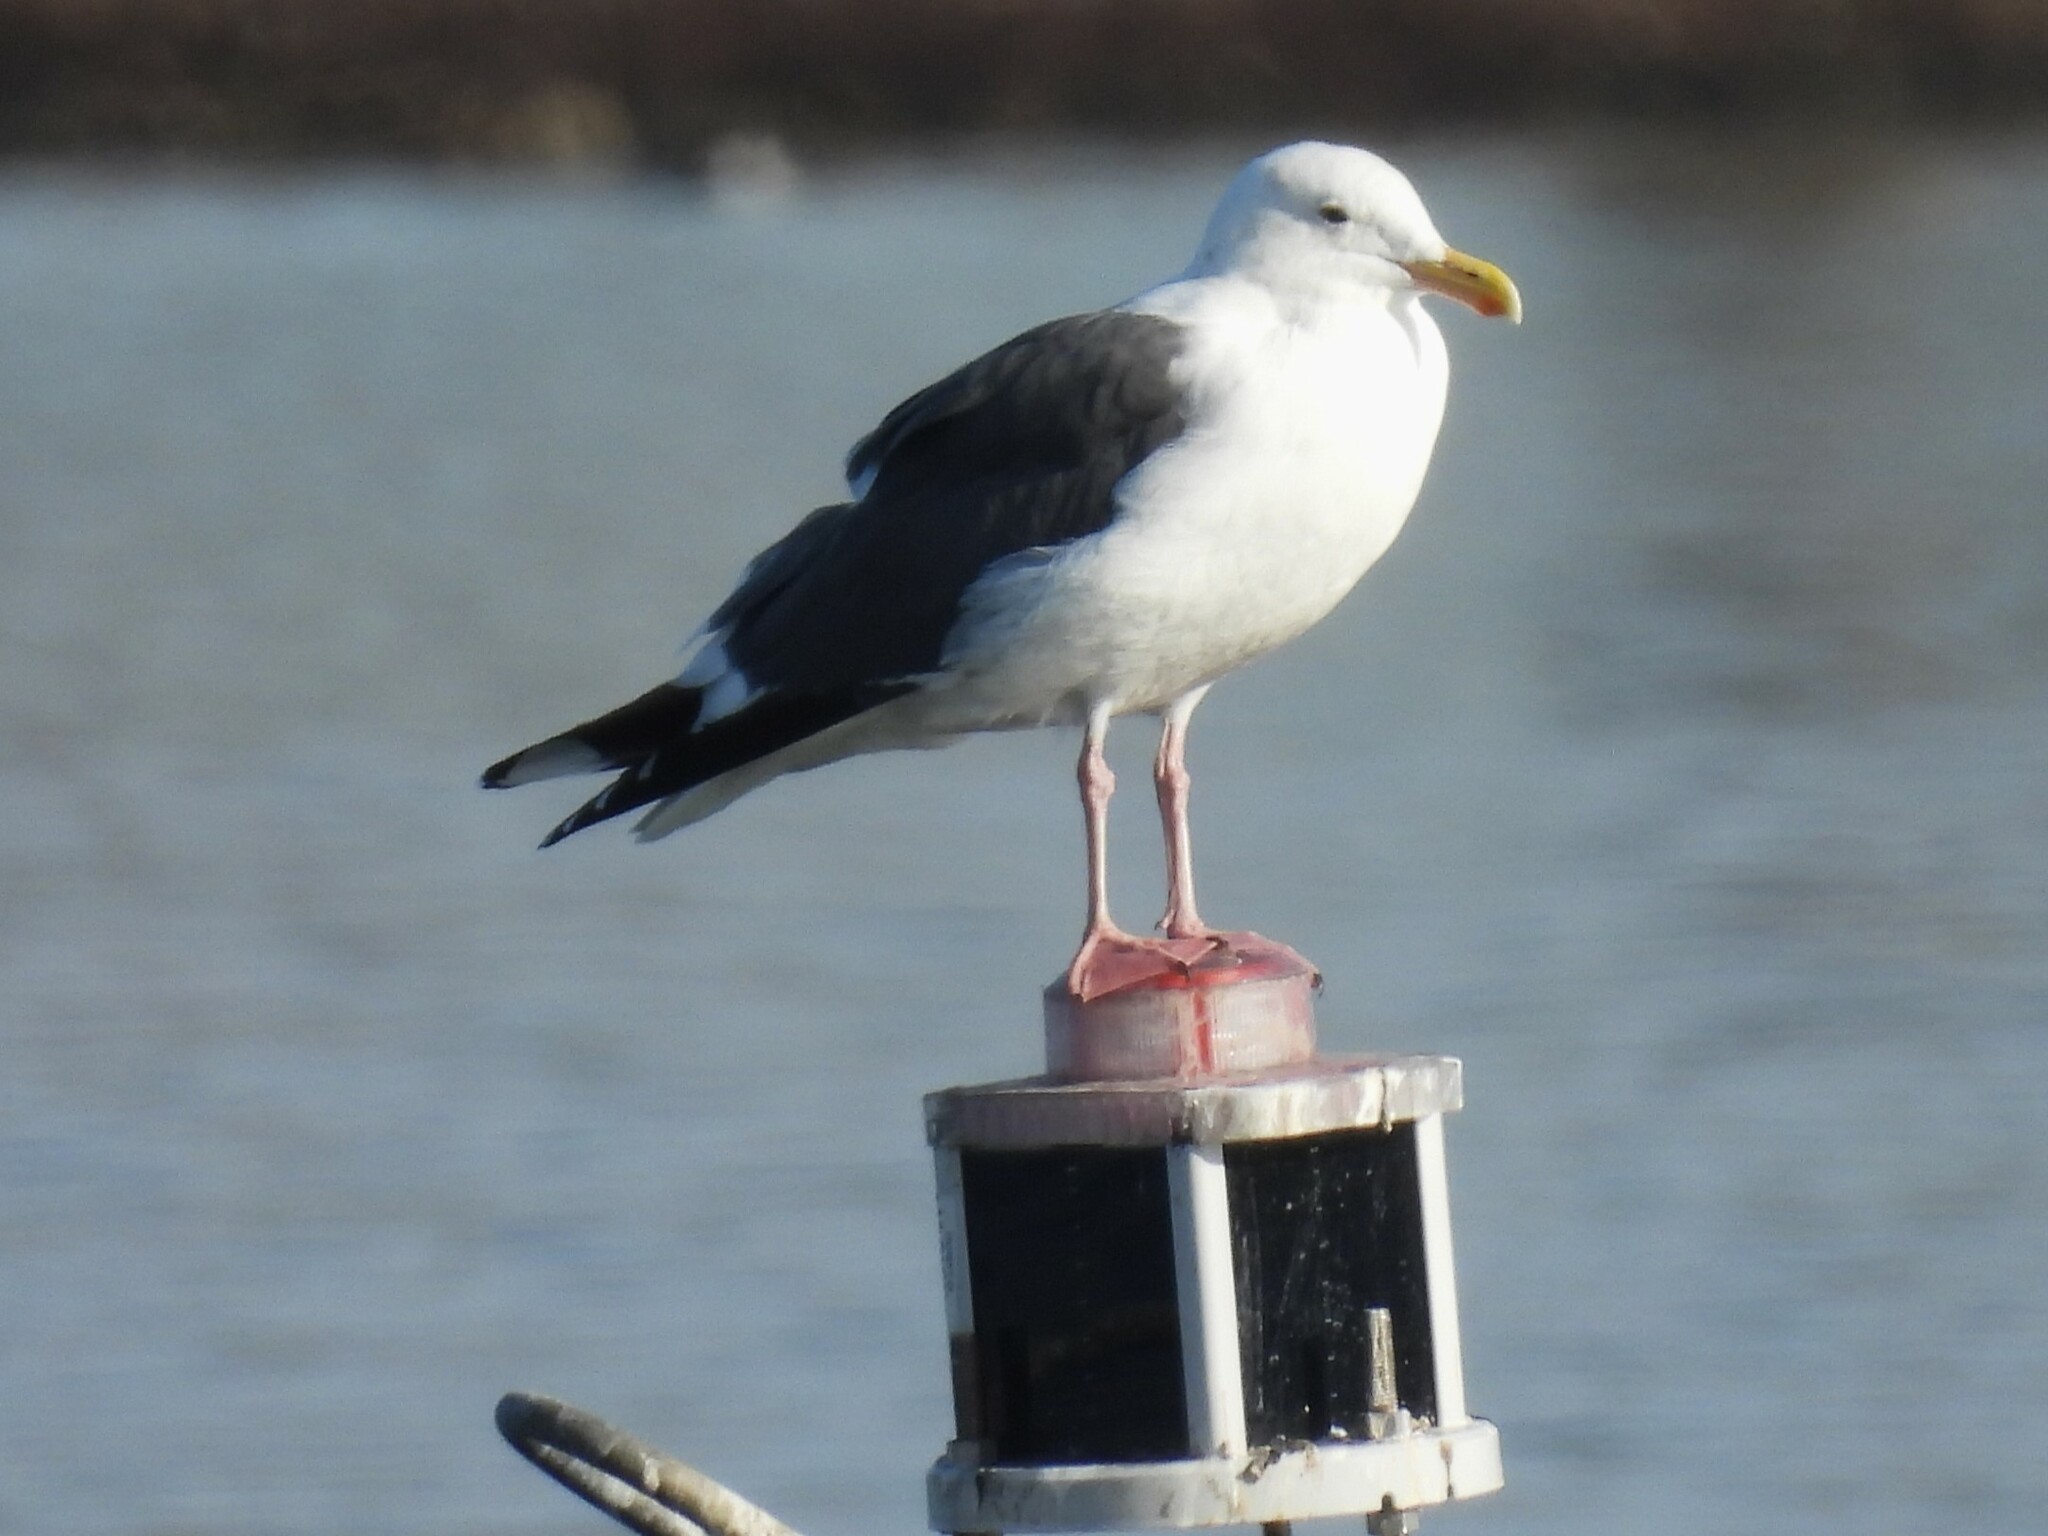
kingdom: Animalia
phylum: Chordata
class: Aves
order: Charadriiformes
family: Laridae
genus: Larus
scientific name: Larus occidentalis
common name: Western gull
